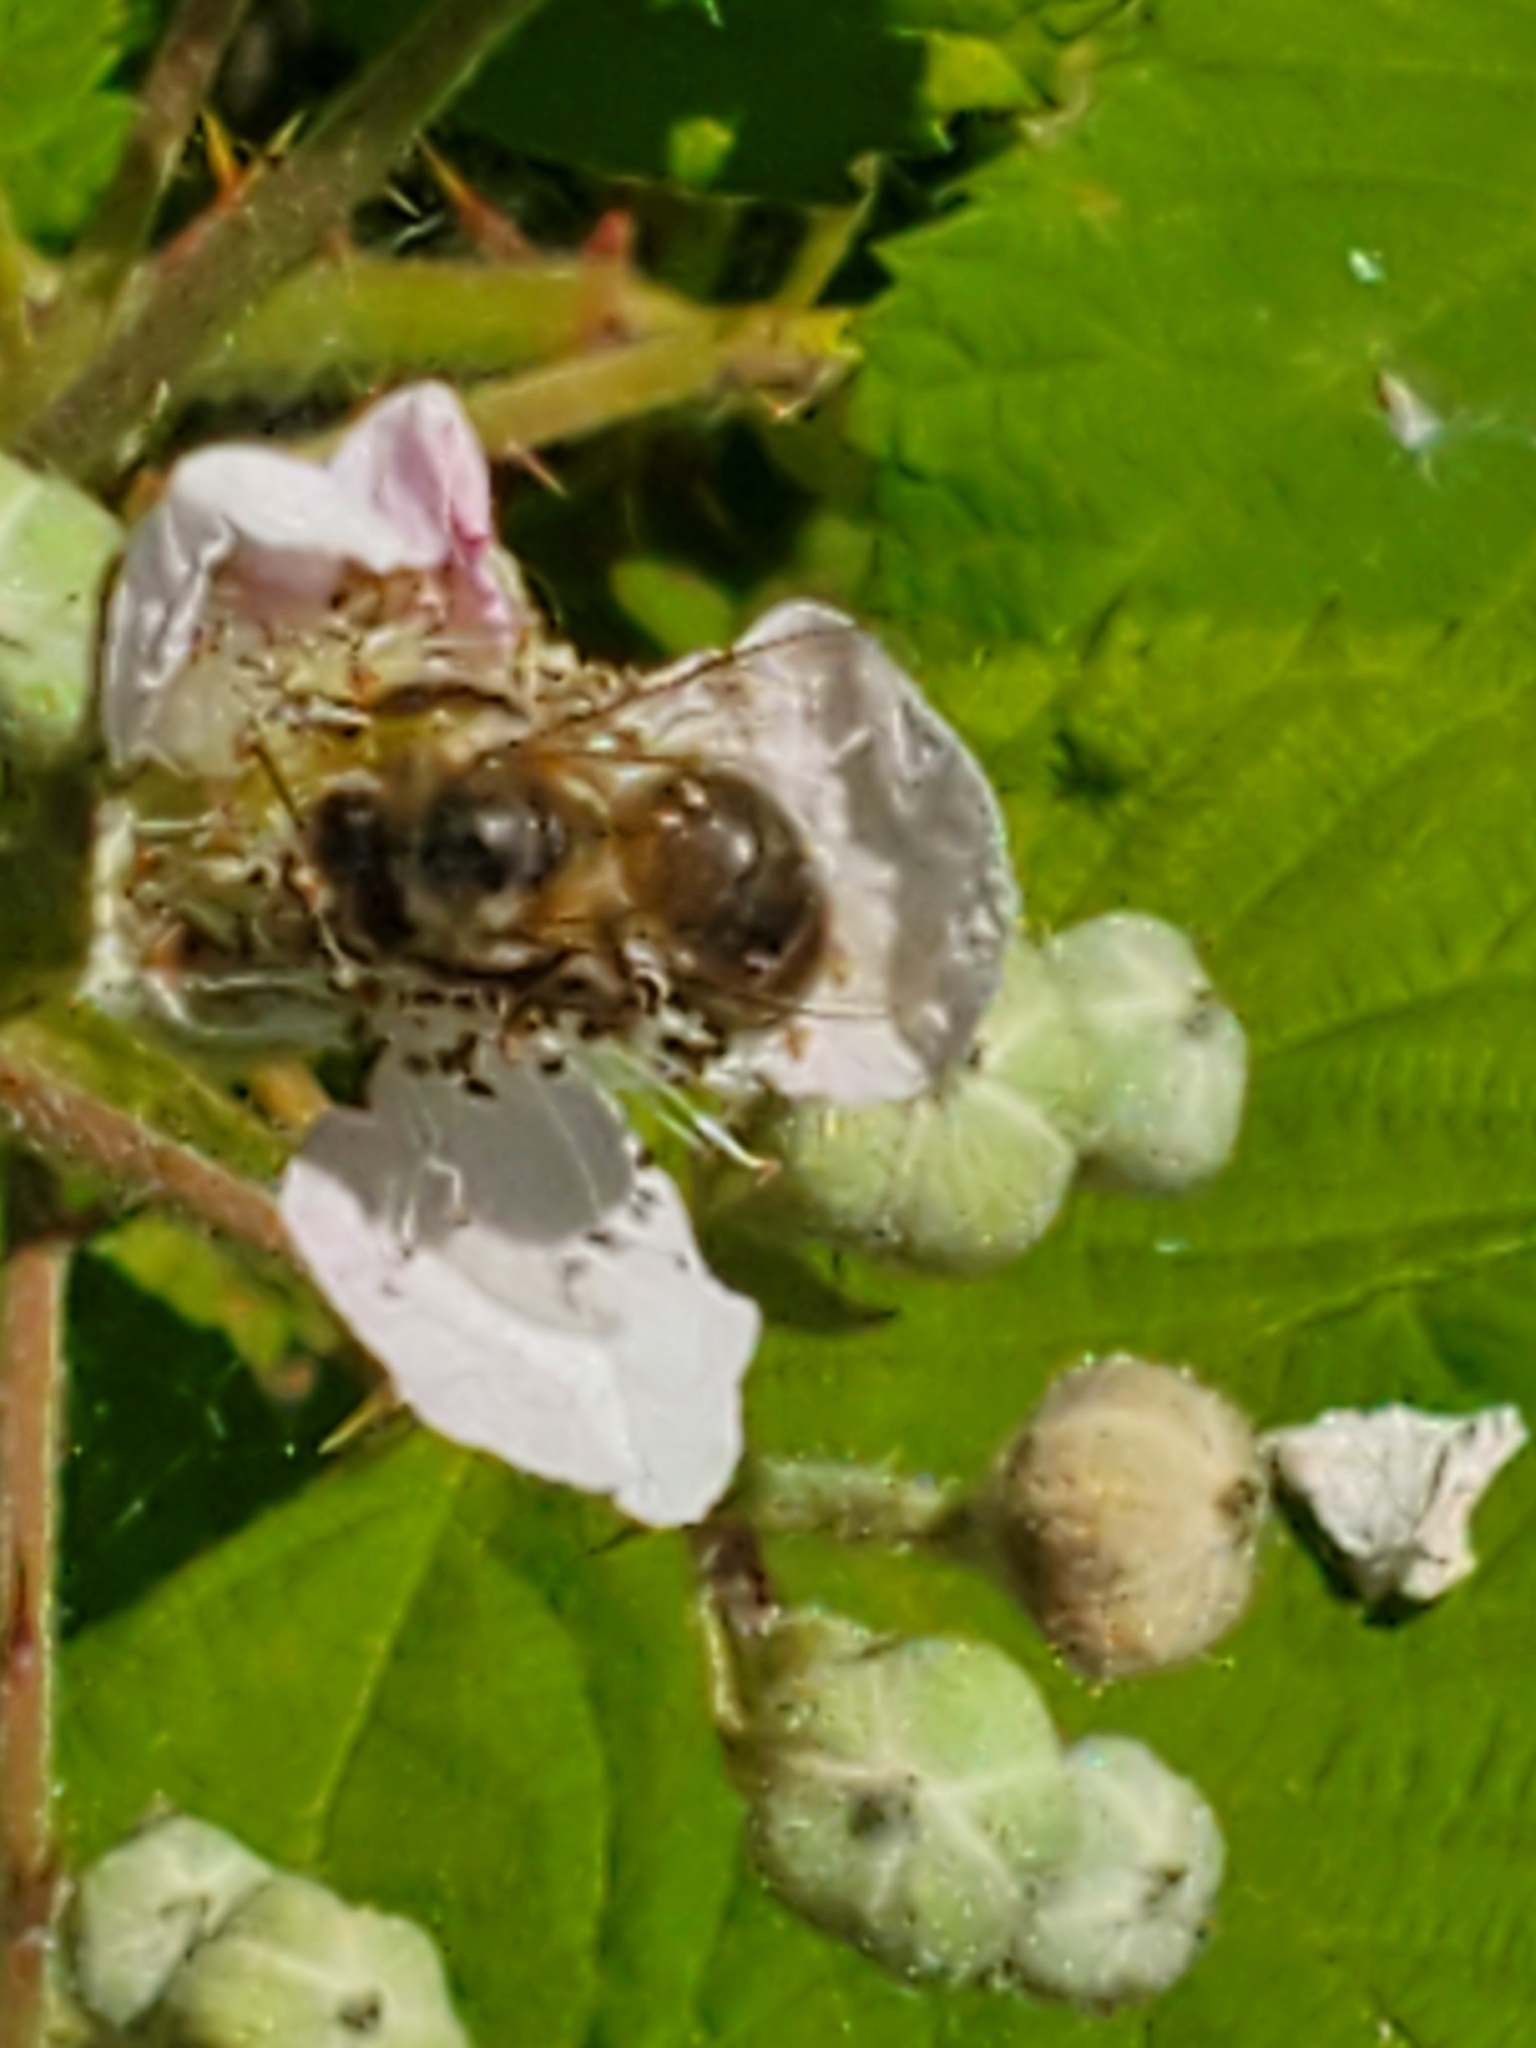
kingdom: Animalia
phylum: Arthropoda
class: Insecta
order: Hymenoptera
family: Apidae
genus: Apis
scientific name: Apis mellifera
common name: Honey bee
